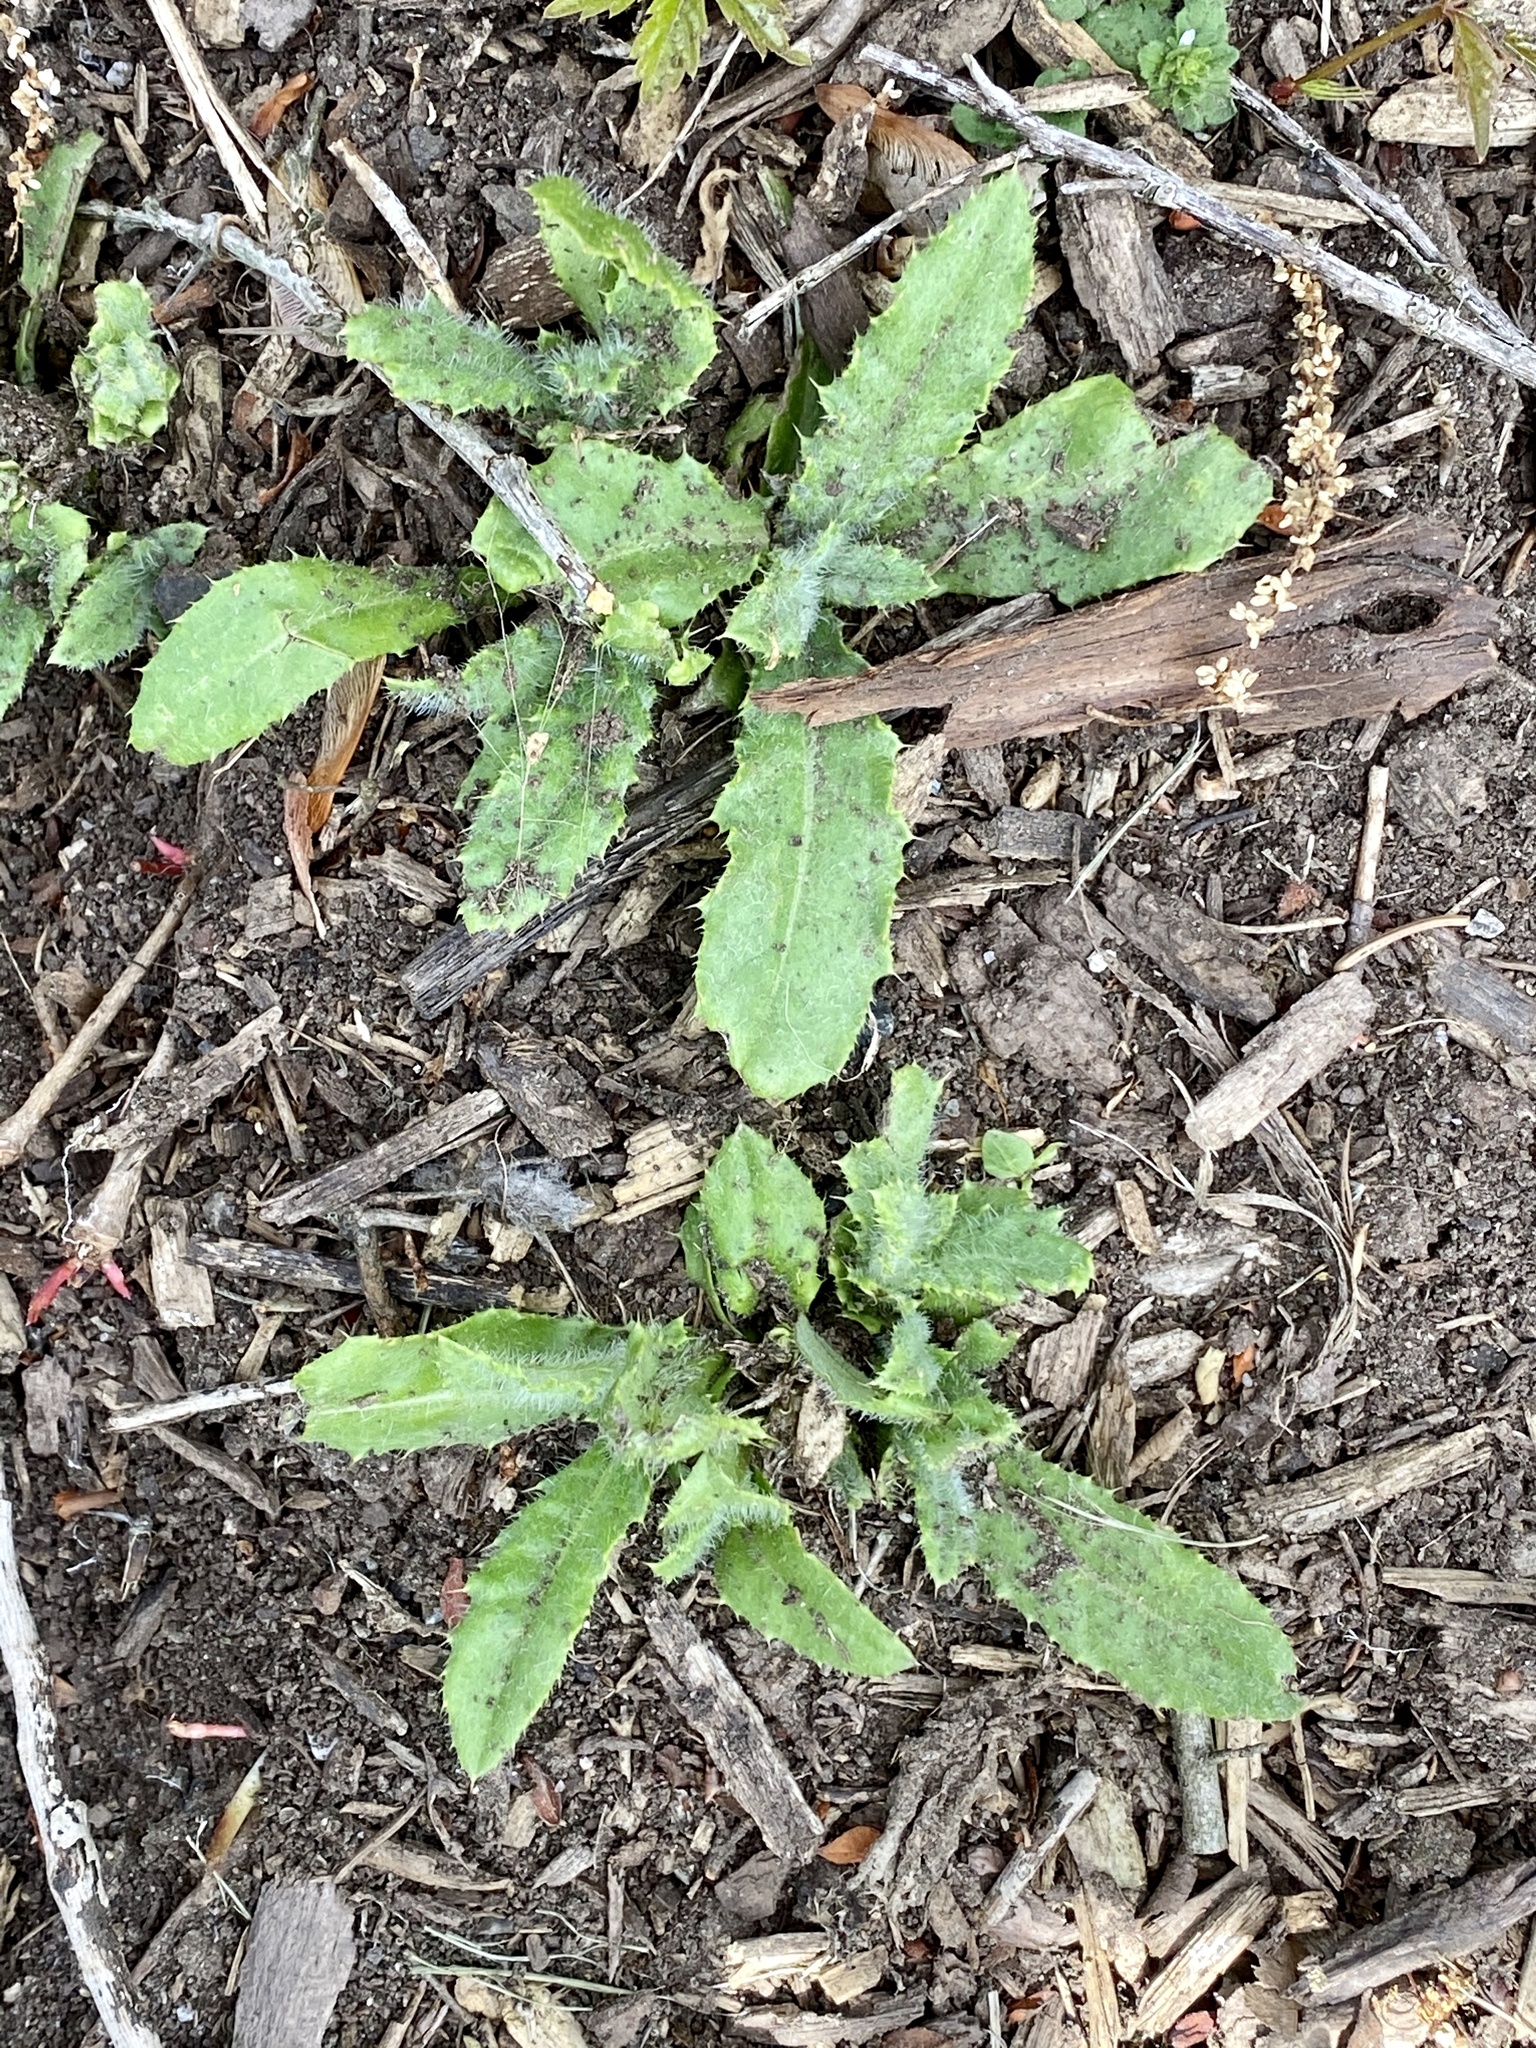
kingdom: Plantae
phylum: Tracheophyta
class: Magnoliopsida
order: Asterales
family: Asteraceae
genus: Cirsium
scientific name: Cirsium arvense
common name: Creeping thistle
